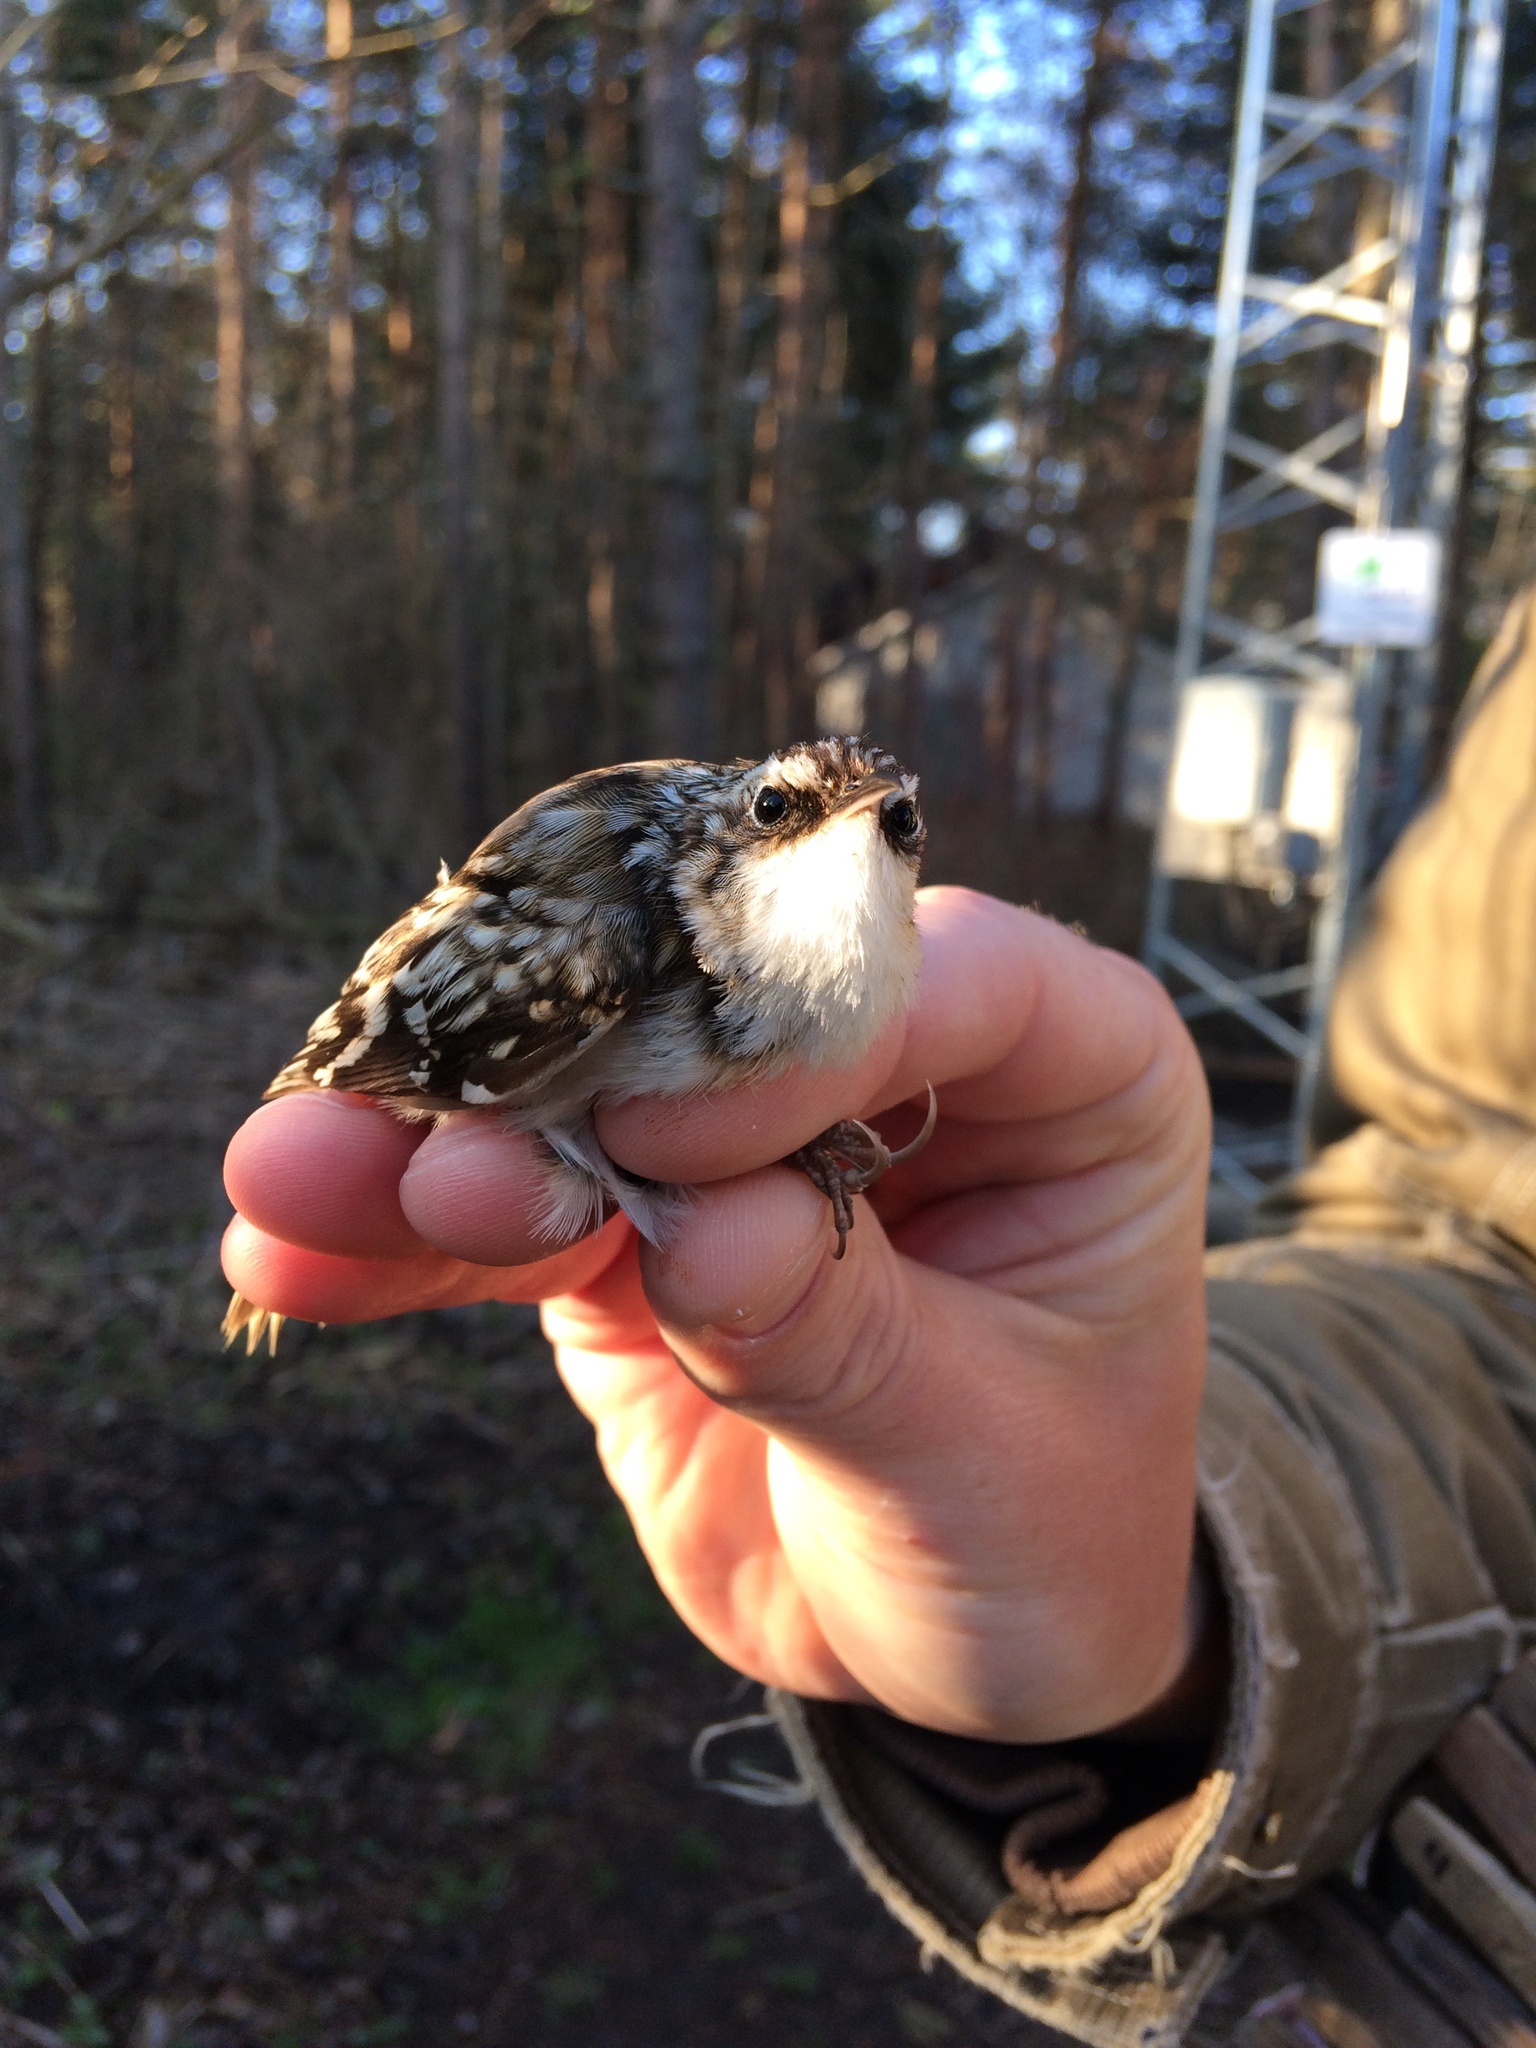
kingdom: Animalia
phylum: Chordata
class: Aves
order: Passeriformes
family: Certhiidae
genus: Certhia
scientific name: Certhia americana
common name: Brown creeper
